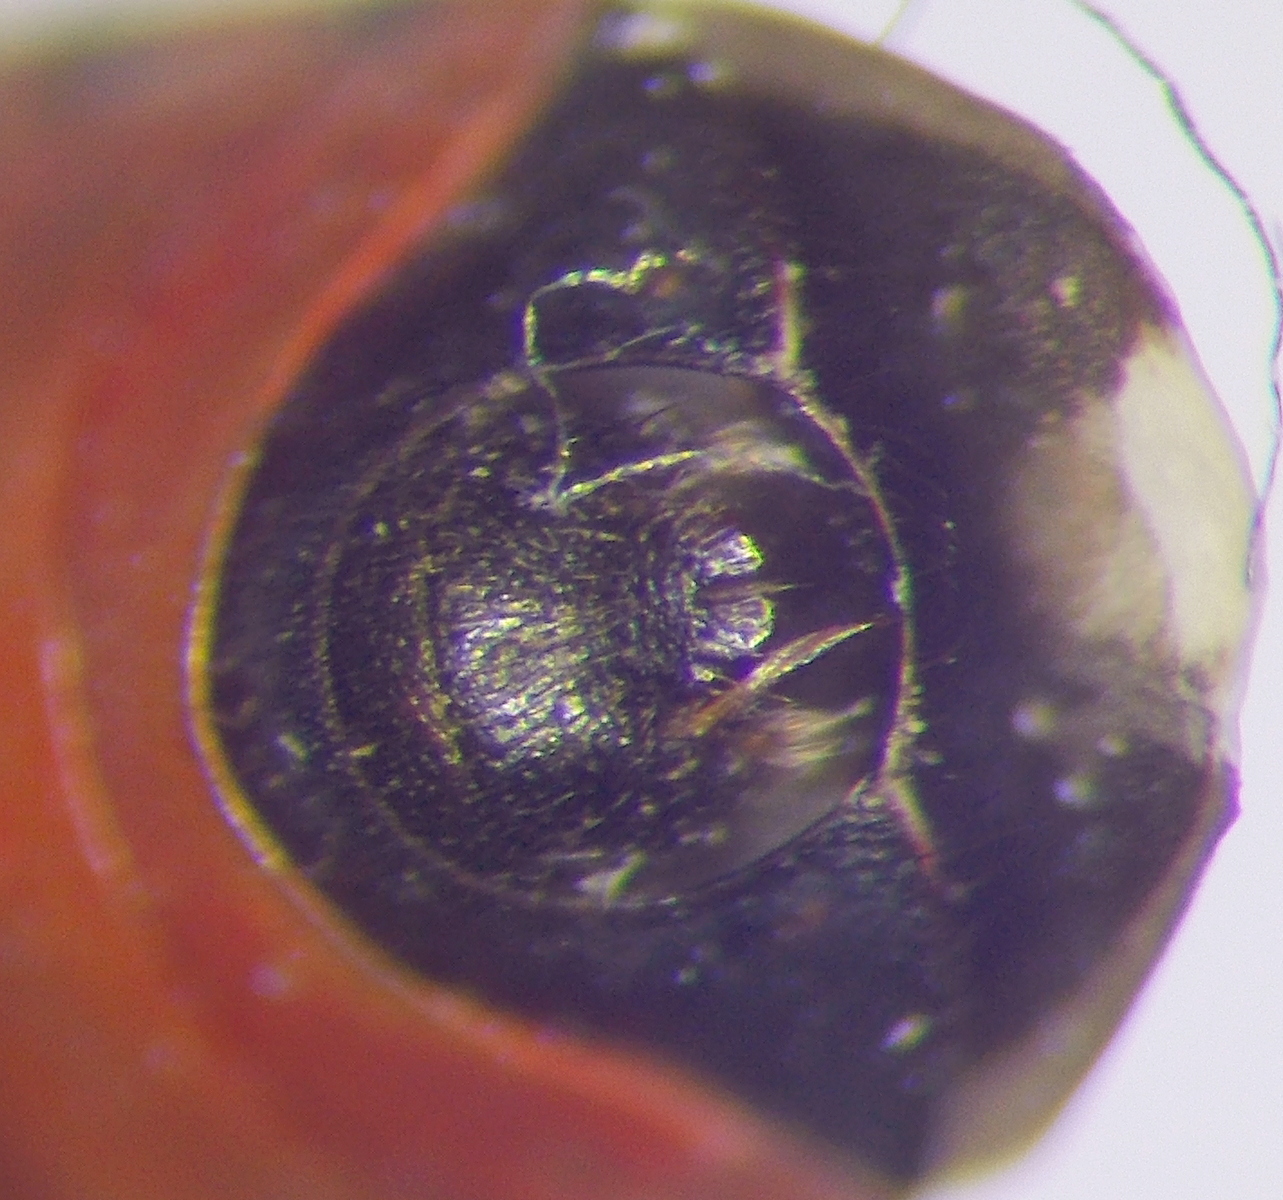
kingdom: Animalia
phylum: Arthropoda
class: Insecta
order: Hemiptera
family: Lygaeidae
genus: Horvathiolus
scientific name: Horvathiolus syriacus
